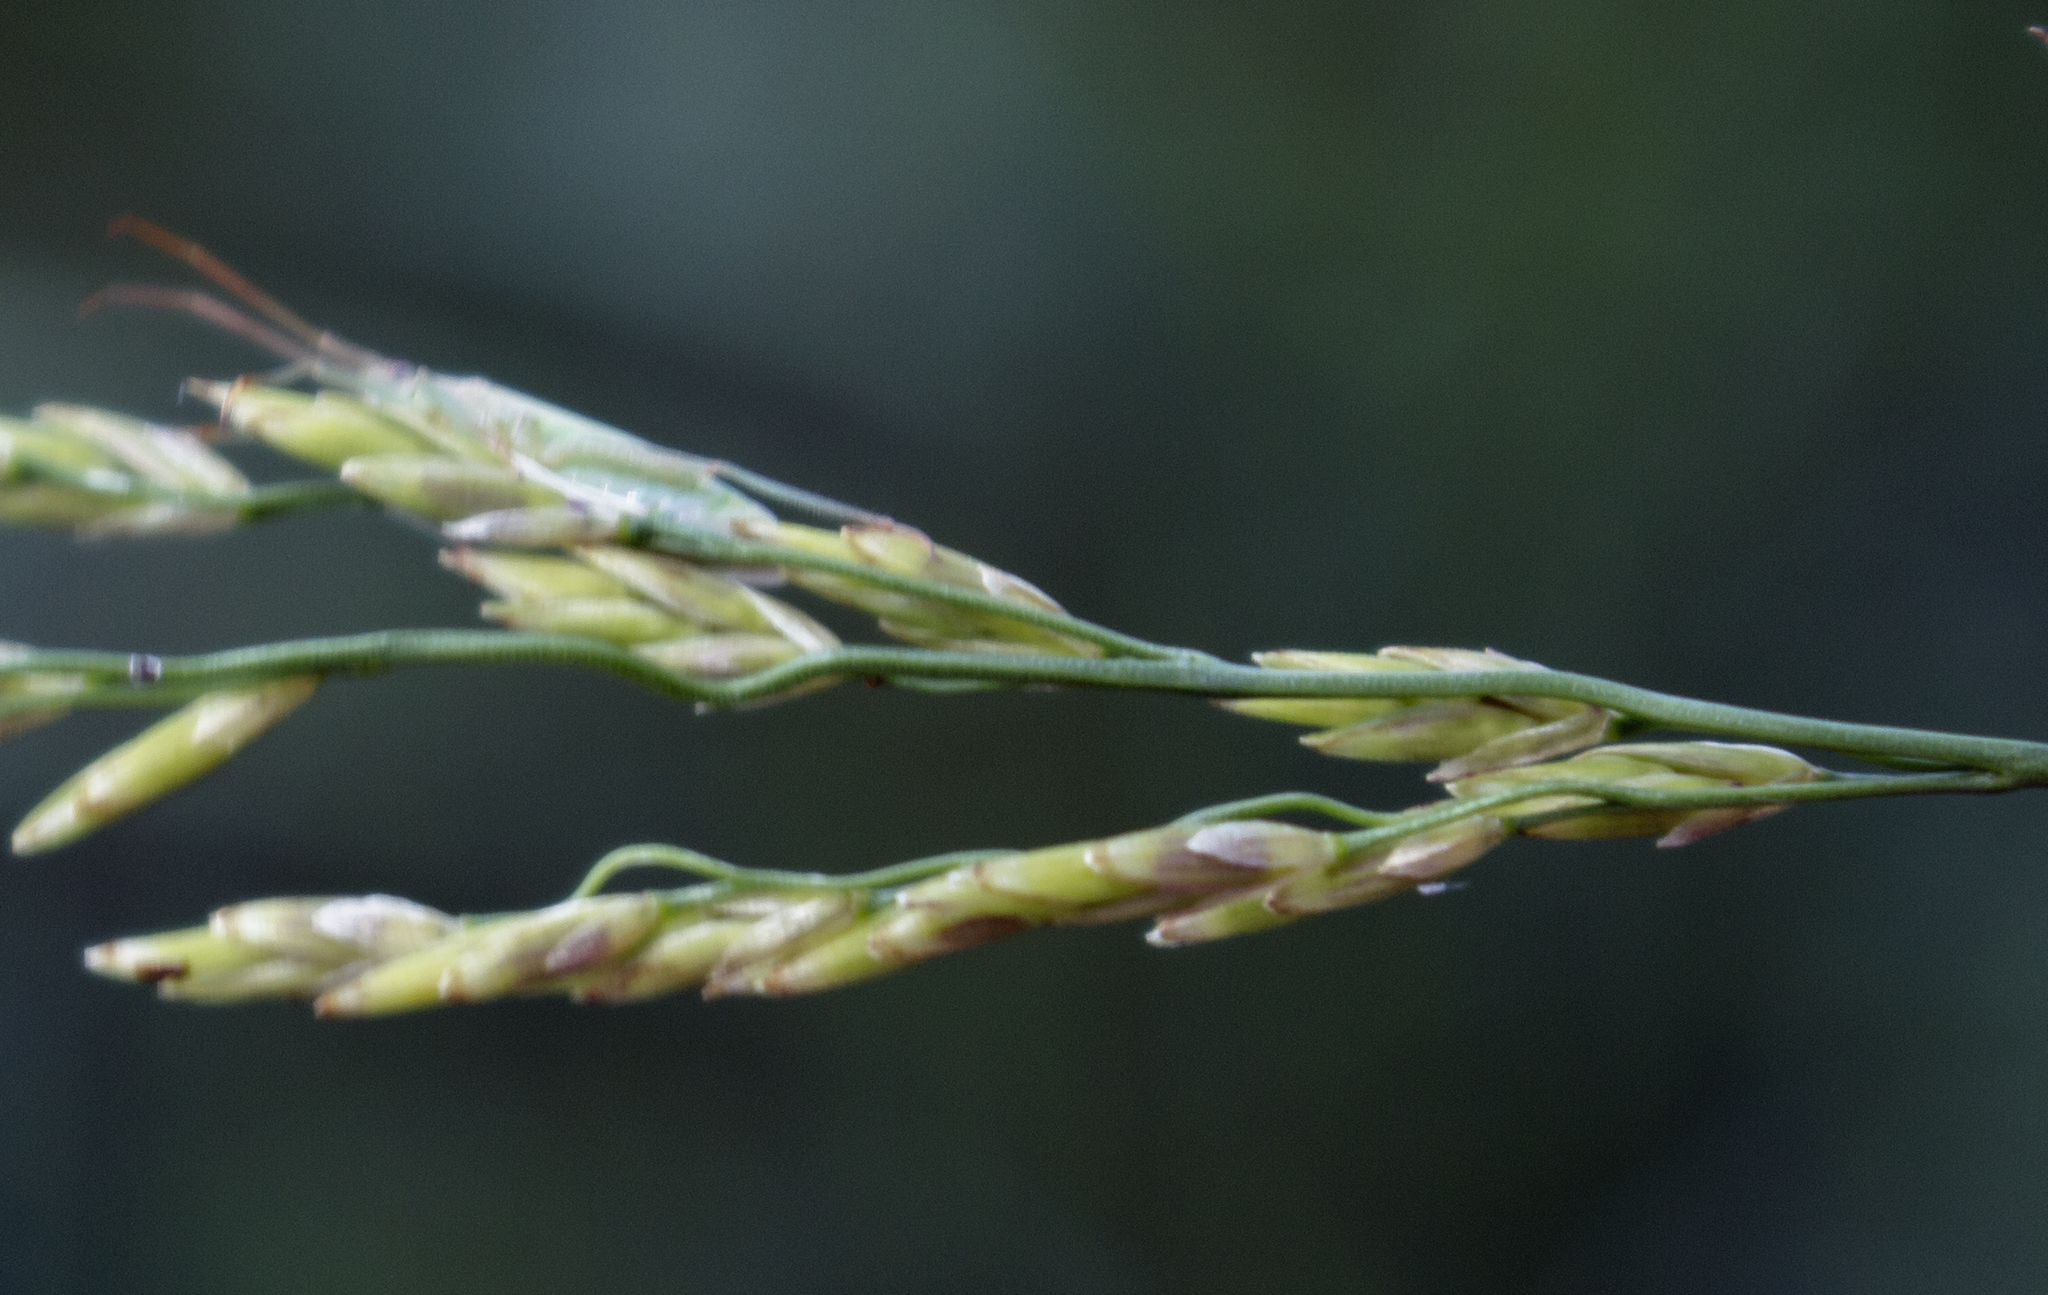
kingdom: Plantae
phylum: Tracheophyta
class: Liliopsida
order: Poales
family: Poaceae
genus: Glyceria
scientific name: Glyceria grandis
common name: American glyceria
